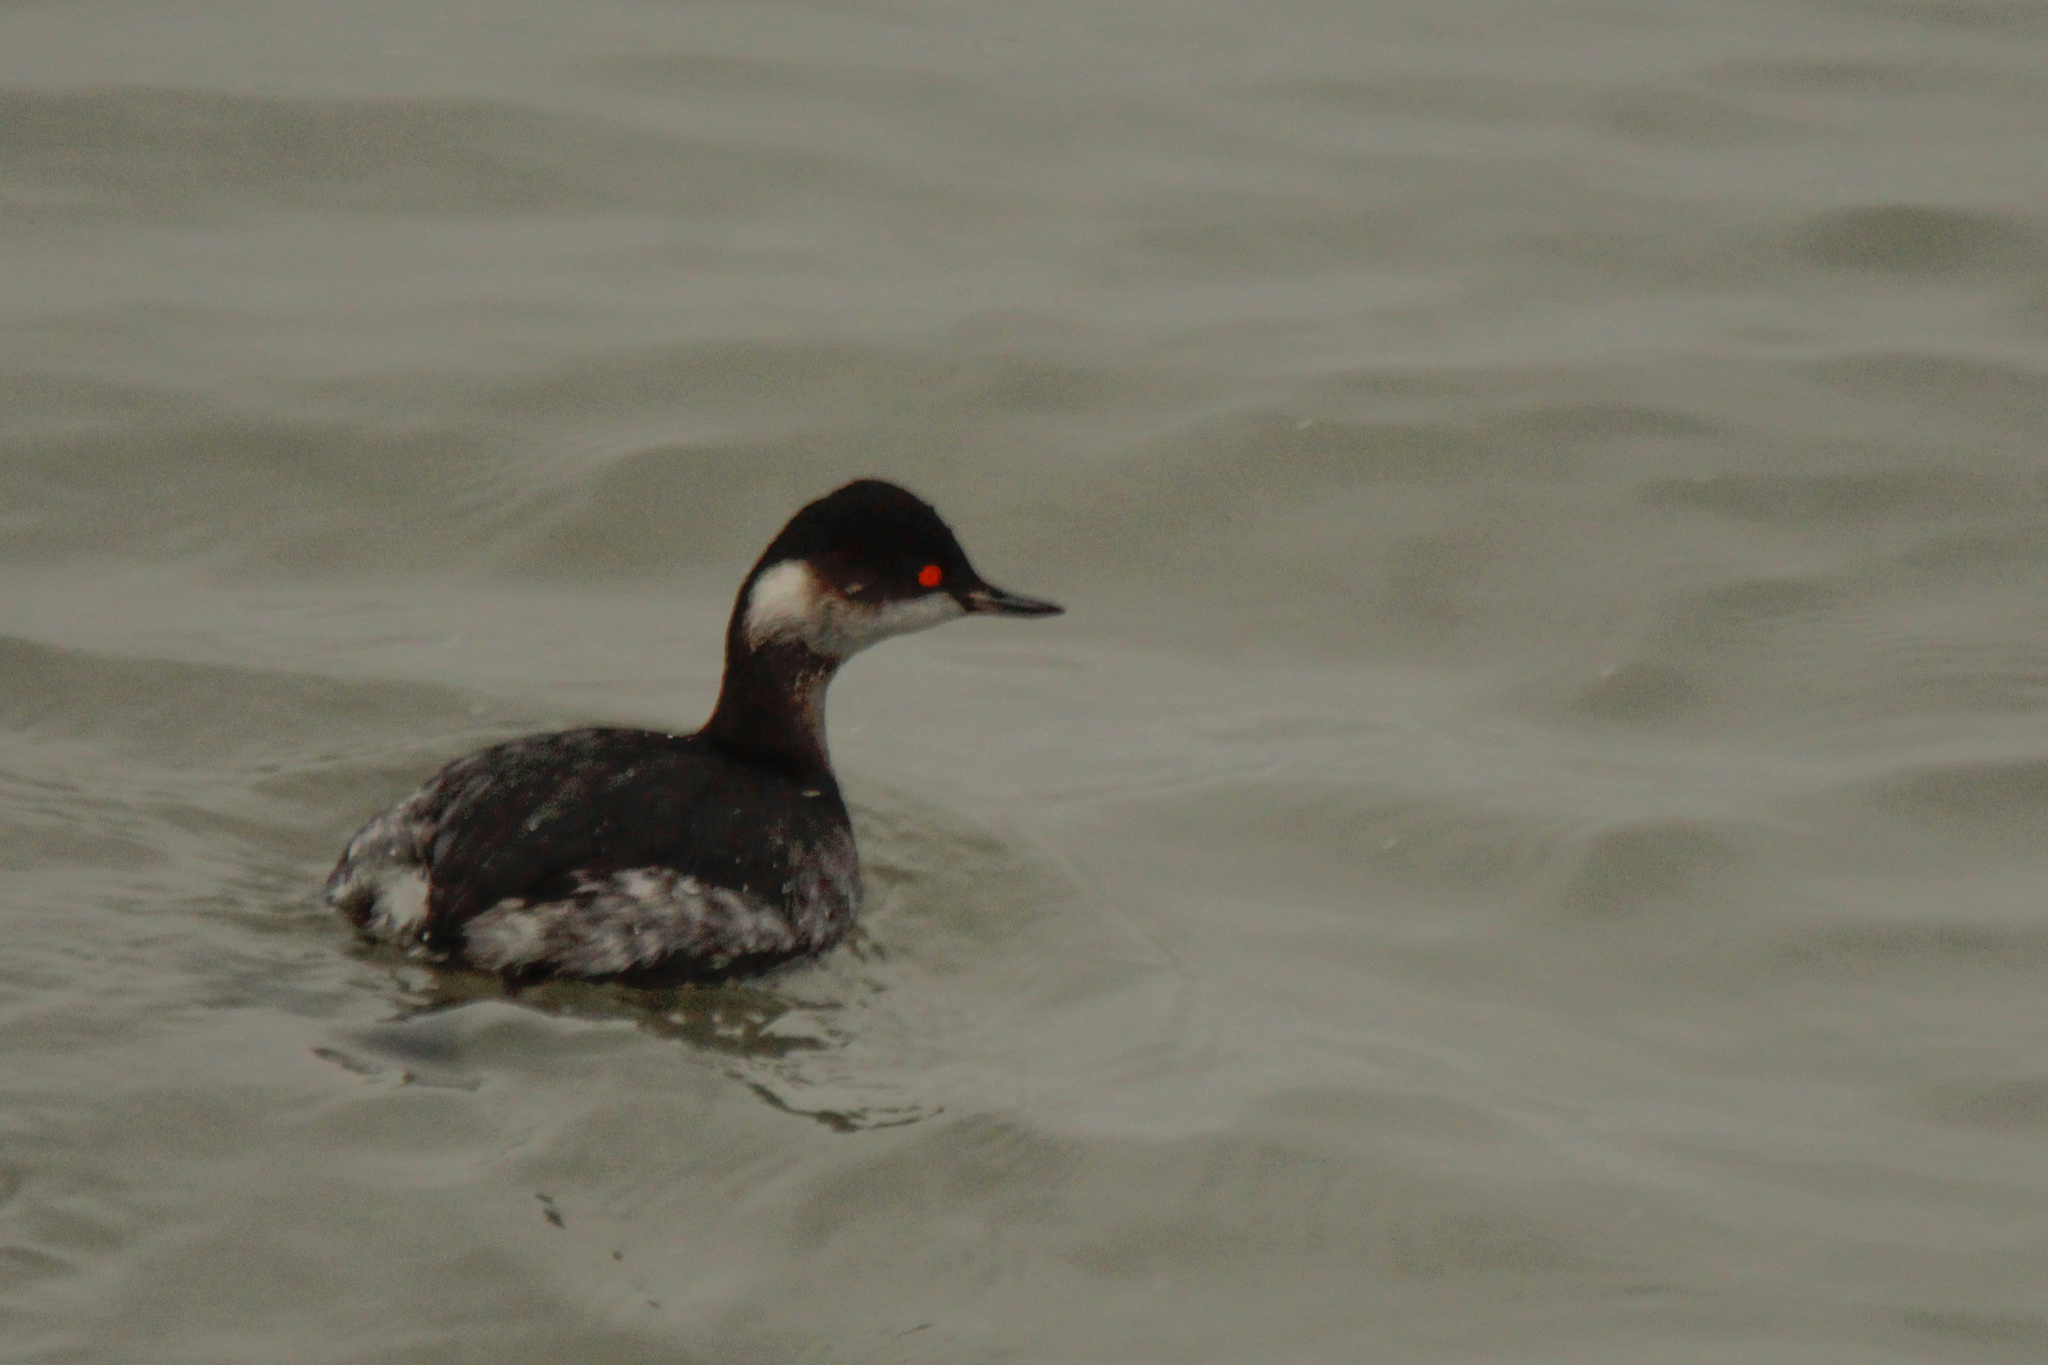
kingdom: Animalia
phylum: Chordata
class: Aves
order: Podicipediformes
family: Podicipedidae
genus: Podiceps
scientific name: Podiceps nigricollis
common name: Black-necked grebe
